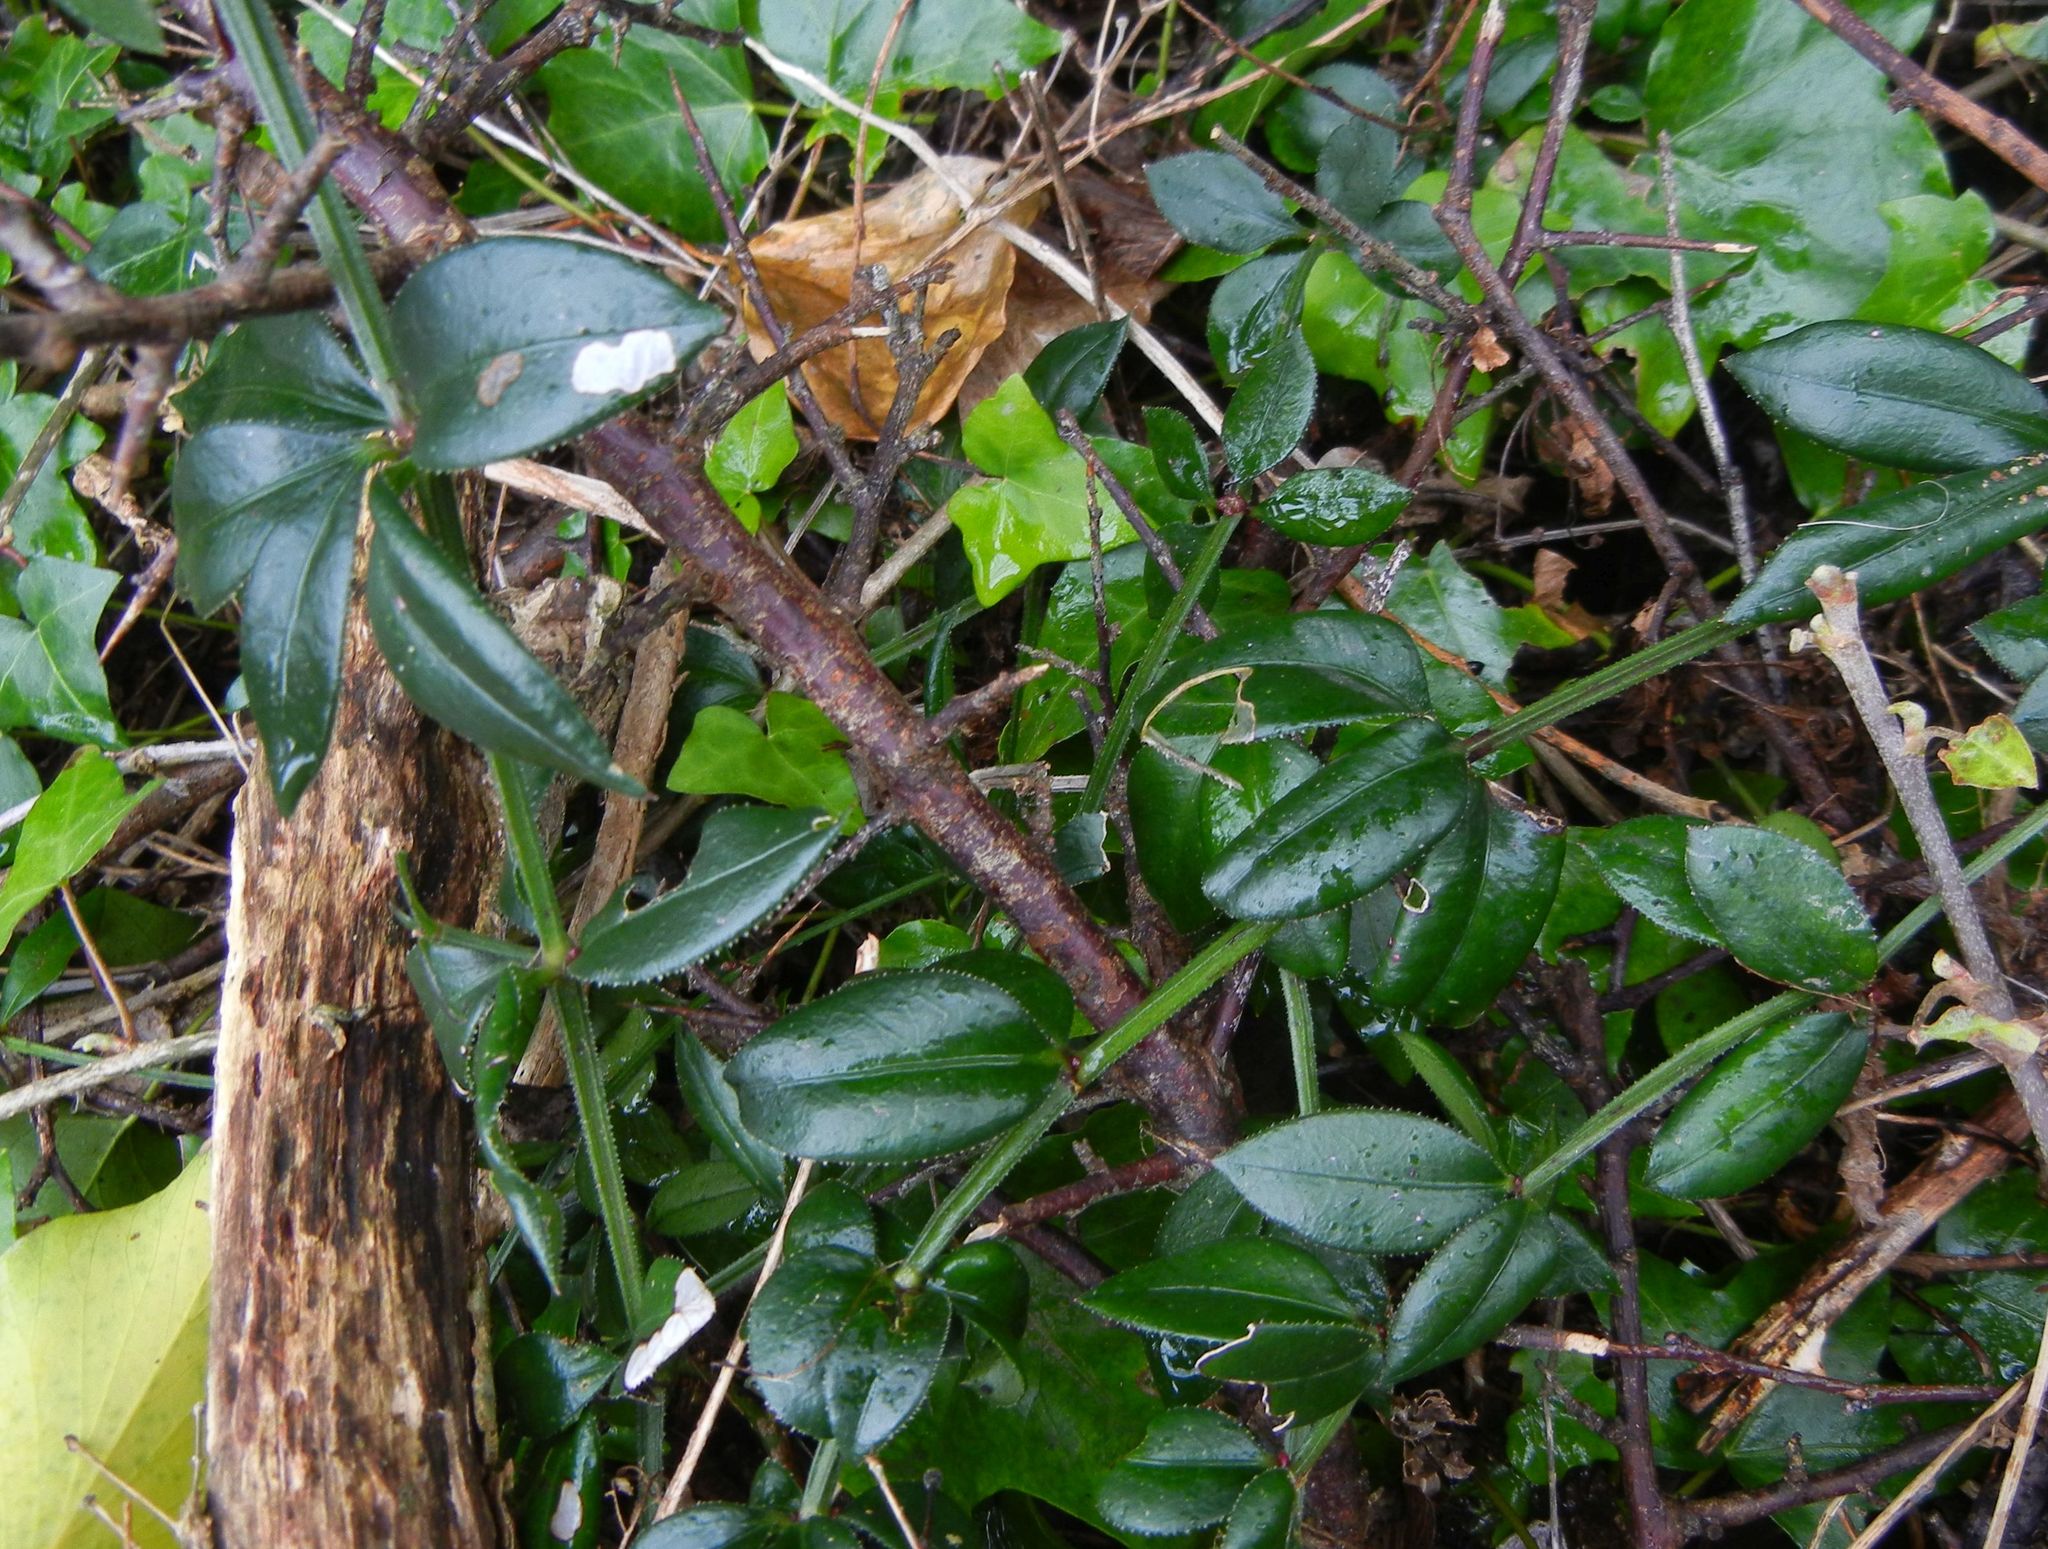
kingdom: Plantae
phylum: Tracheophyta
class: Magnoliopsida
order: Gentianales
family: Rubiaceae
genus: Rubia
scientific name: Rubia peregrina
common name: Wild madder
